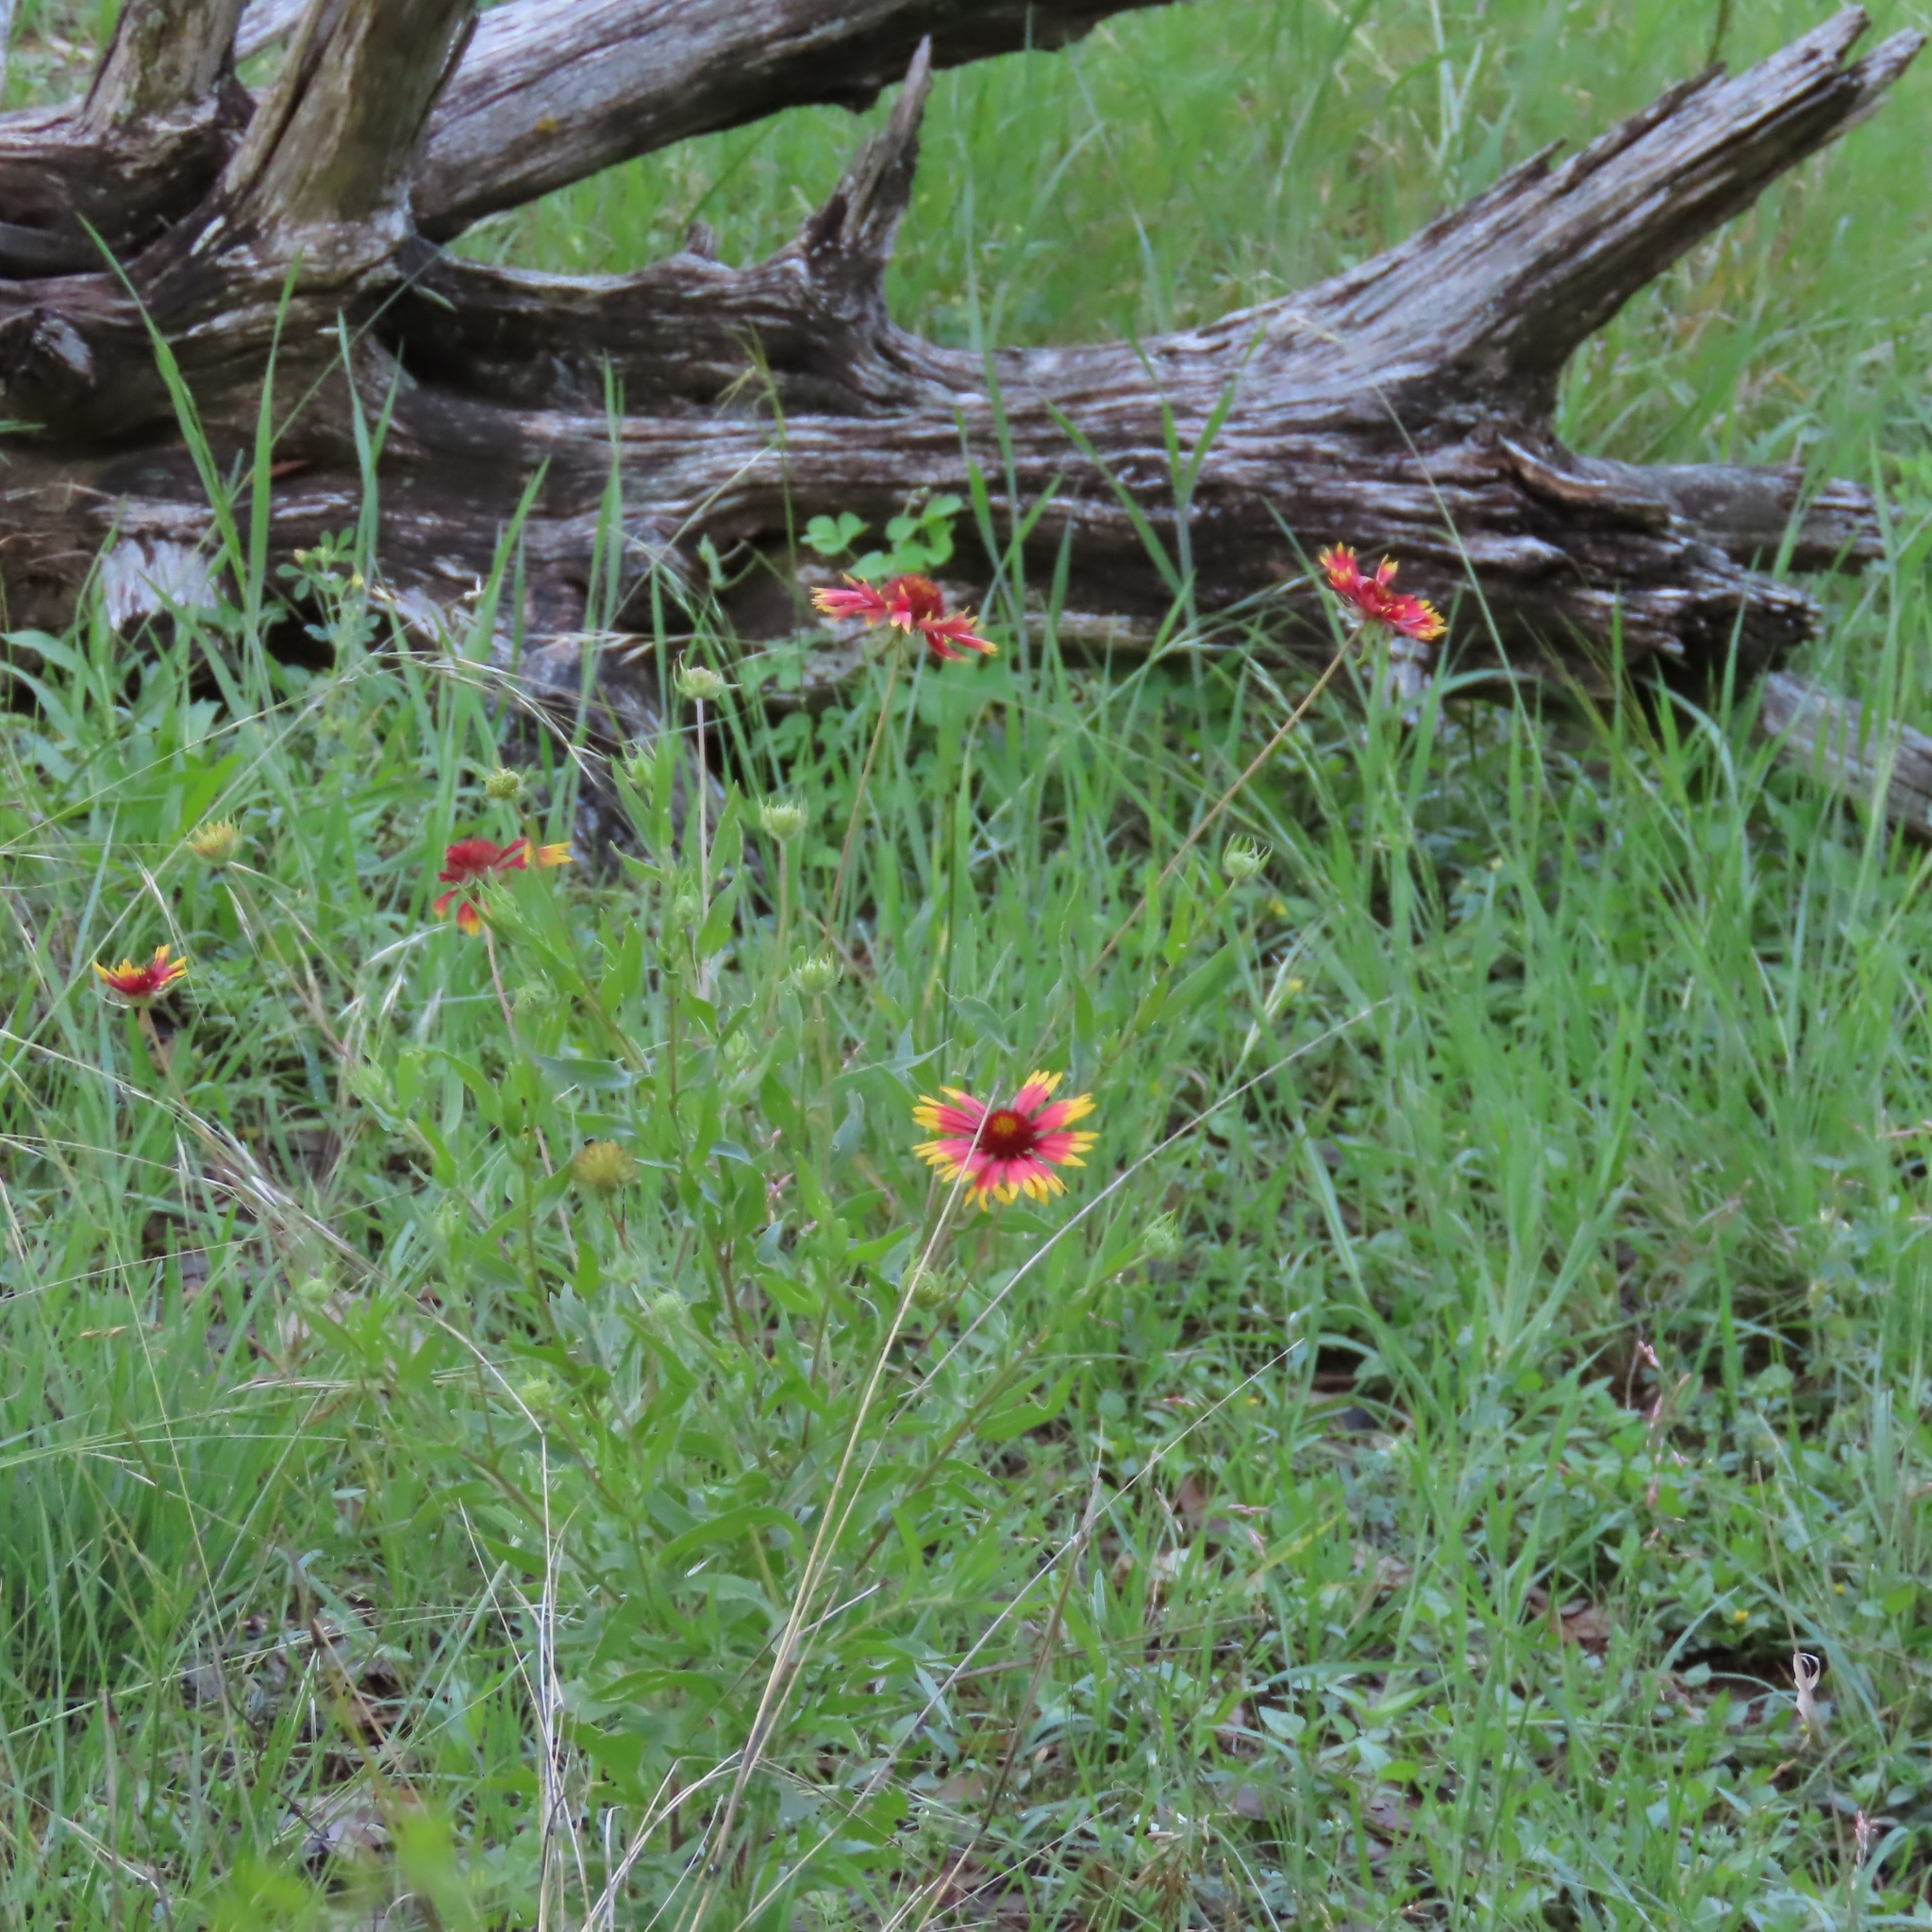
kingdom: Plantae
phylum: Tracheophyta
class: Magnoliopsida
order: Asterales
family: Asteraceae
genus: Gaillardia
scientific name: Gaillardia pulchella
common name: Firewheel
